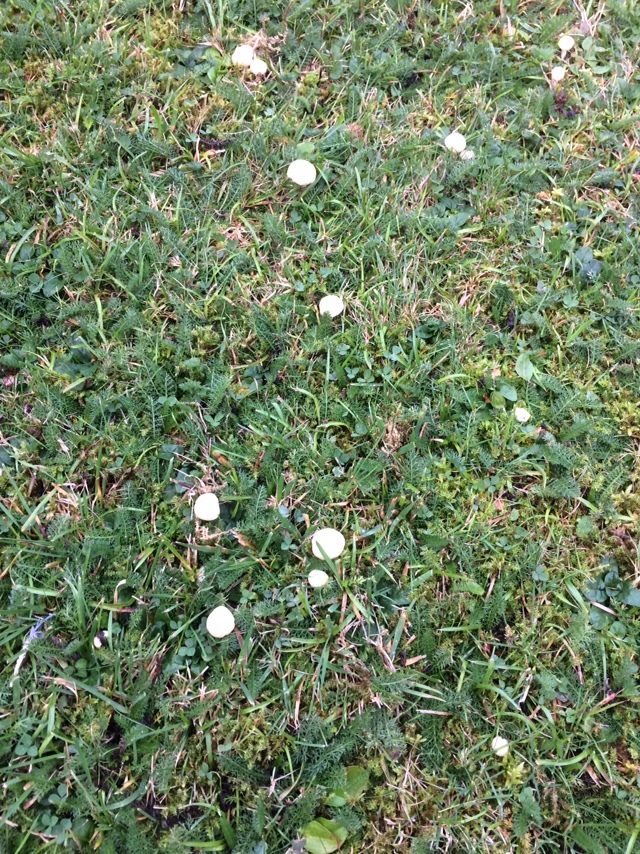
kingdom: Fungi
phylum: Basidiomycota
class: Agaricomycetes
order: Agaricales
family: Hygrophoraceae
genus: Cuphophyllus
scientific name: Cuphophyllus virgineus
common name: Snowy waxcap
